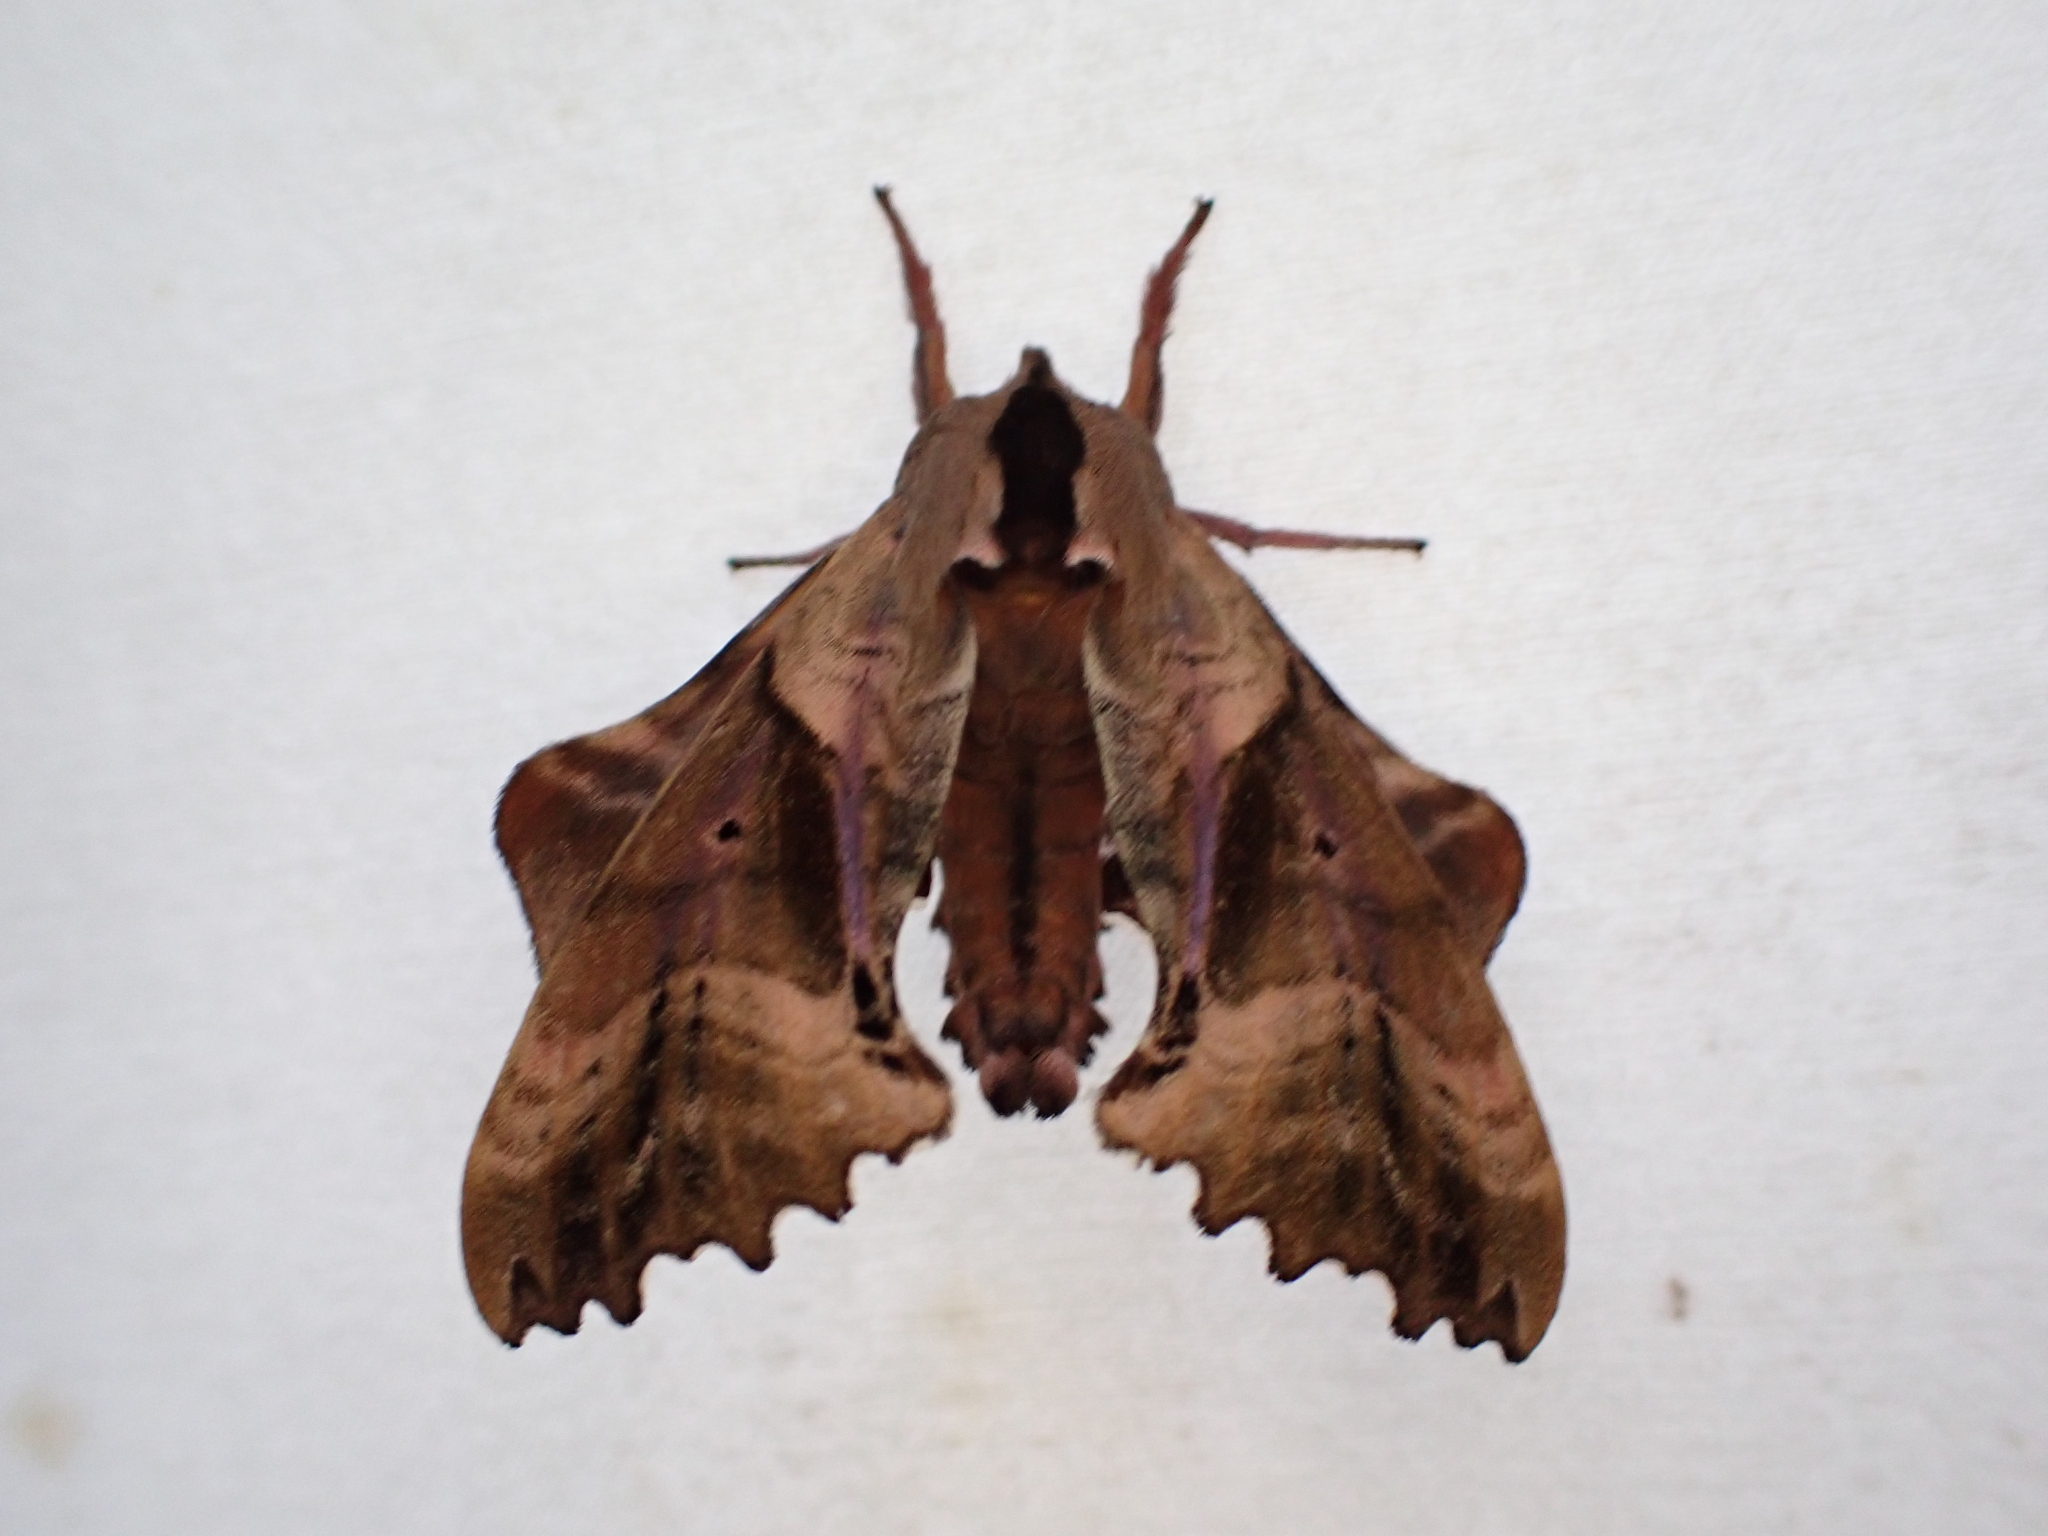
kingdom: Animalia
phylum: Arthropoda
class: Insecta
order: Lepidoptera
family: Sphingidae
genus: Paonias
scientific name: Paonias excaecata
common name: Blind-eyed sphinx
